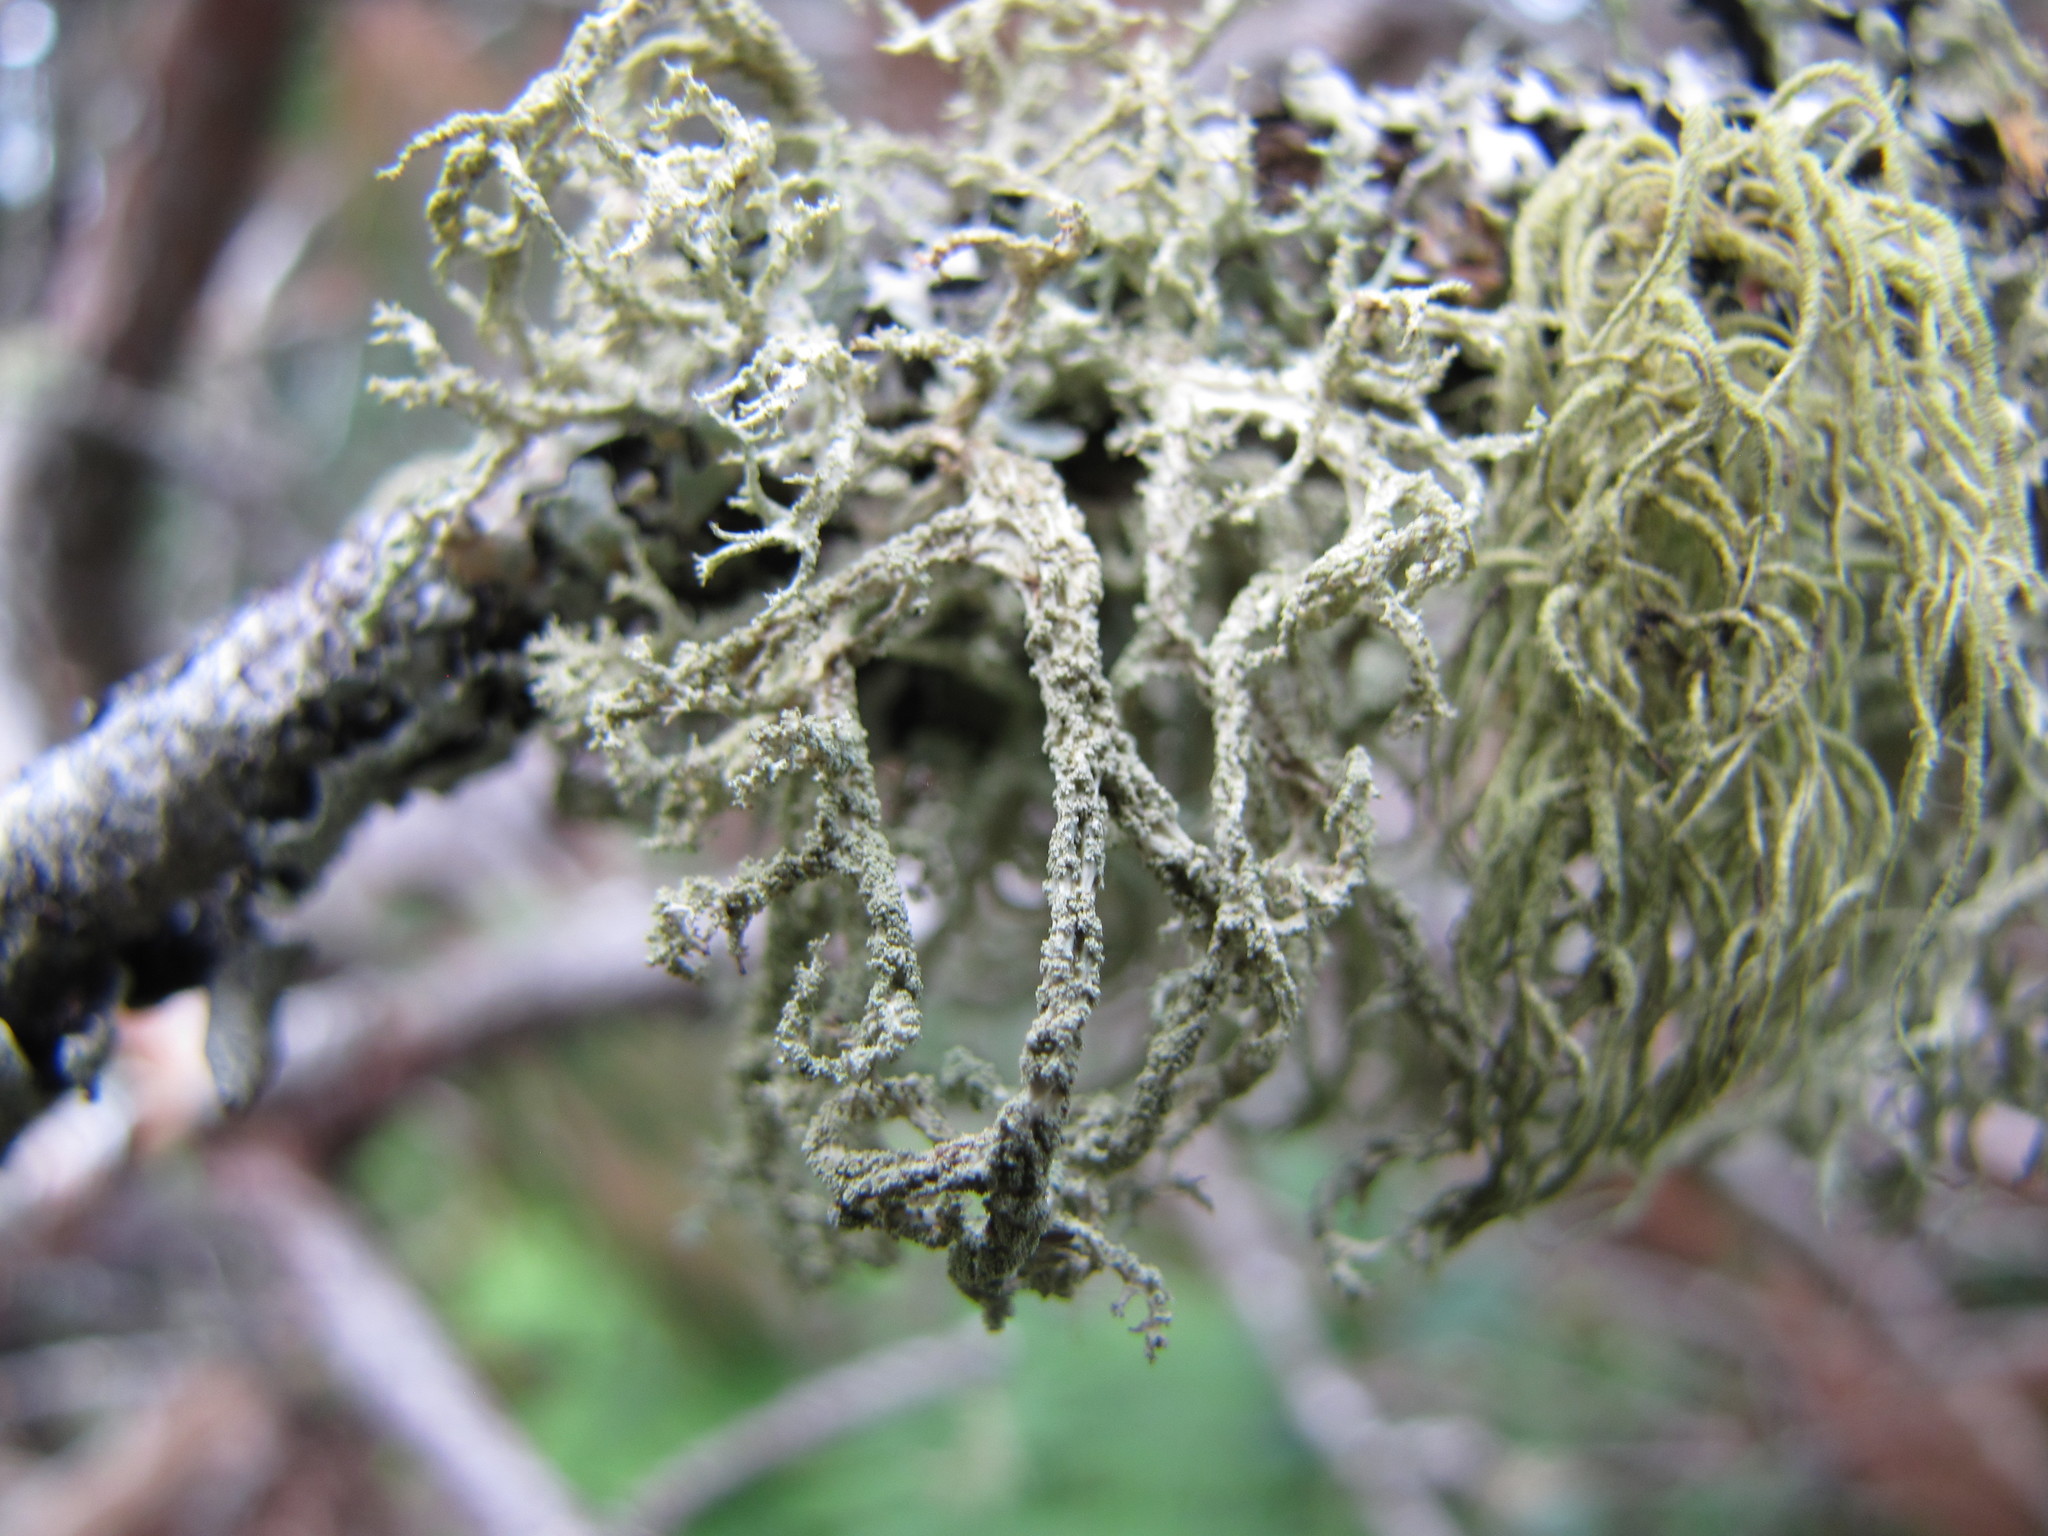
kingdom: Fungi
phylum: Ascomycota
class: Lecanoromycetes
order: Lecanorales
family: Parmeliaceae
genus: Evernia
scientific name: Evernia mesomorpha
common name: Boreal oak moss lichen
